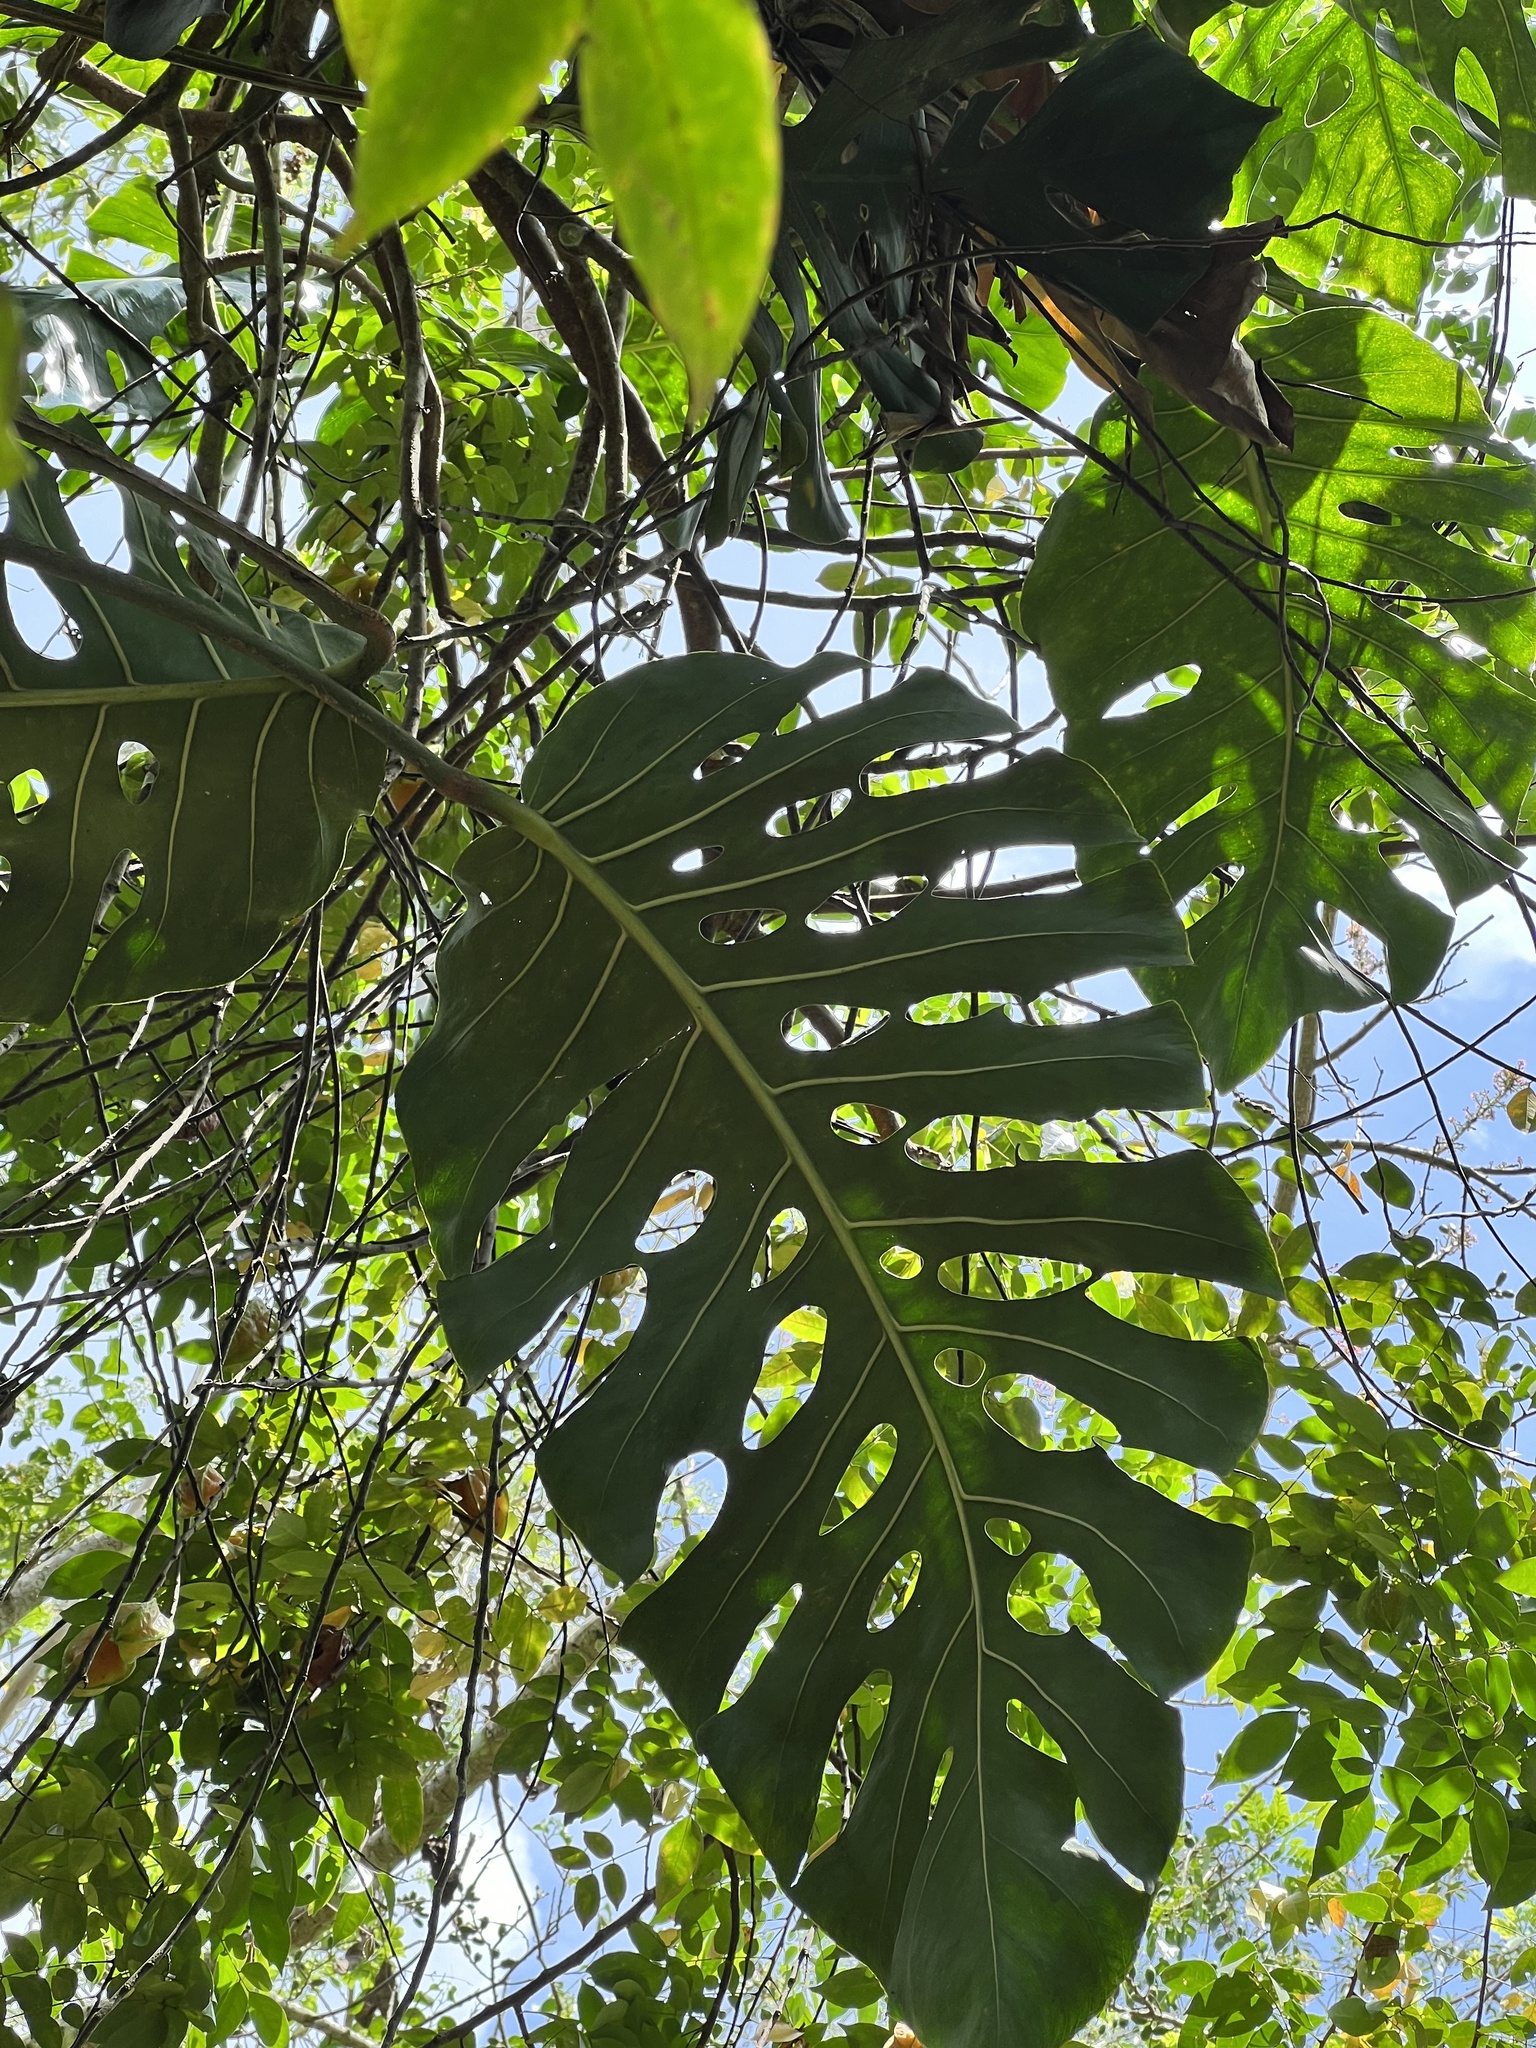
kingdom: Plantae
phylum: Tracheophyta
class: Liliopsida
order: Alismatales
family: Araceae
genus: Monstera
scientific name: Monstera dubia
